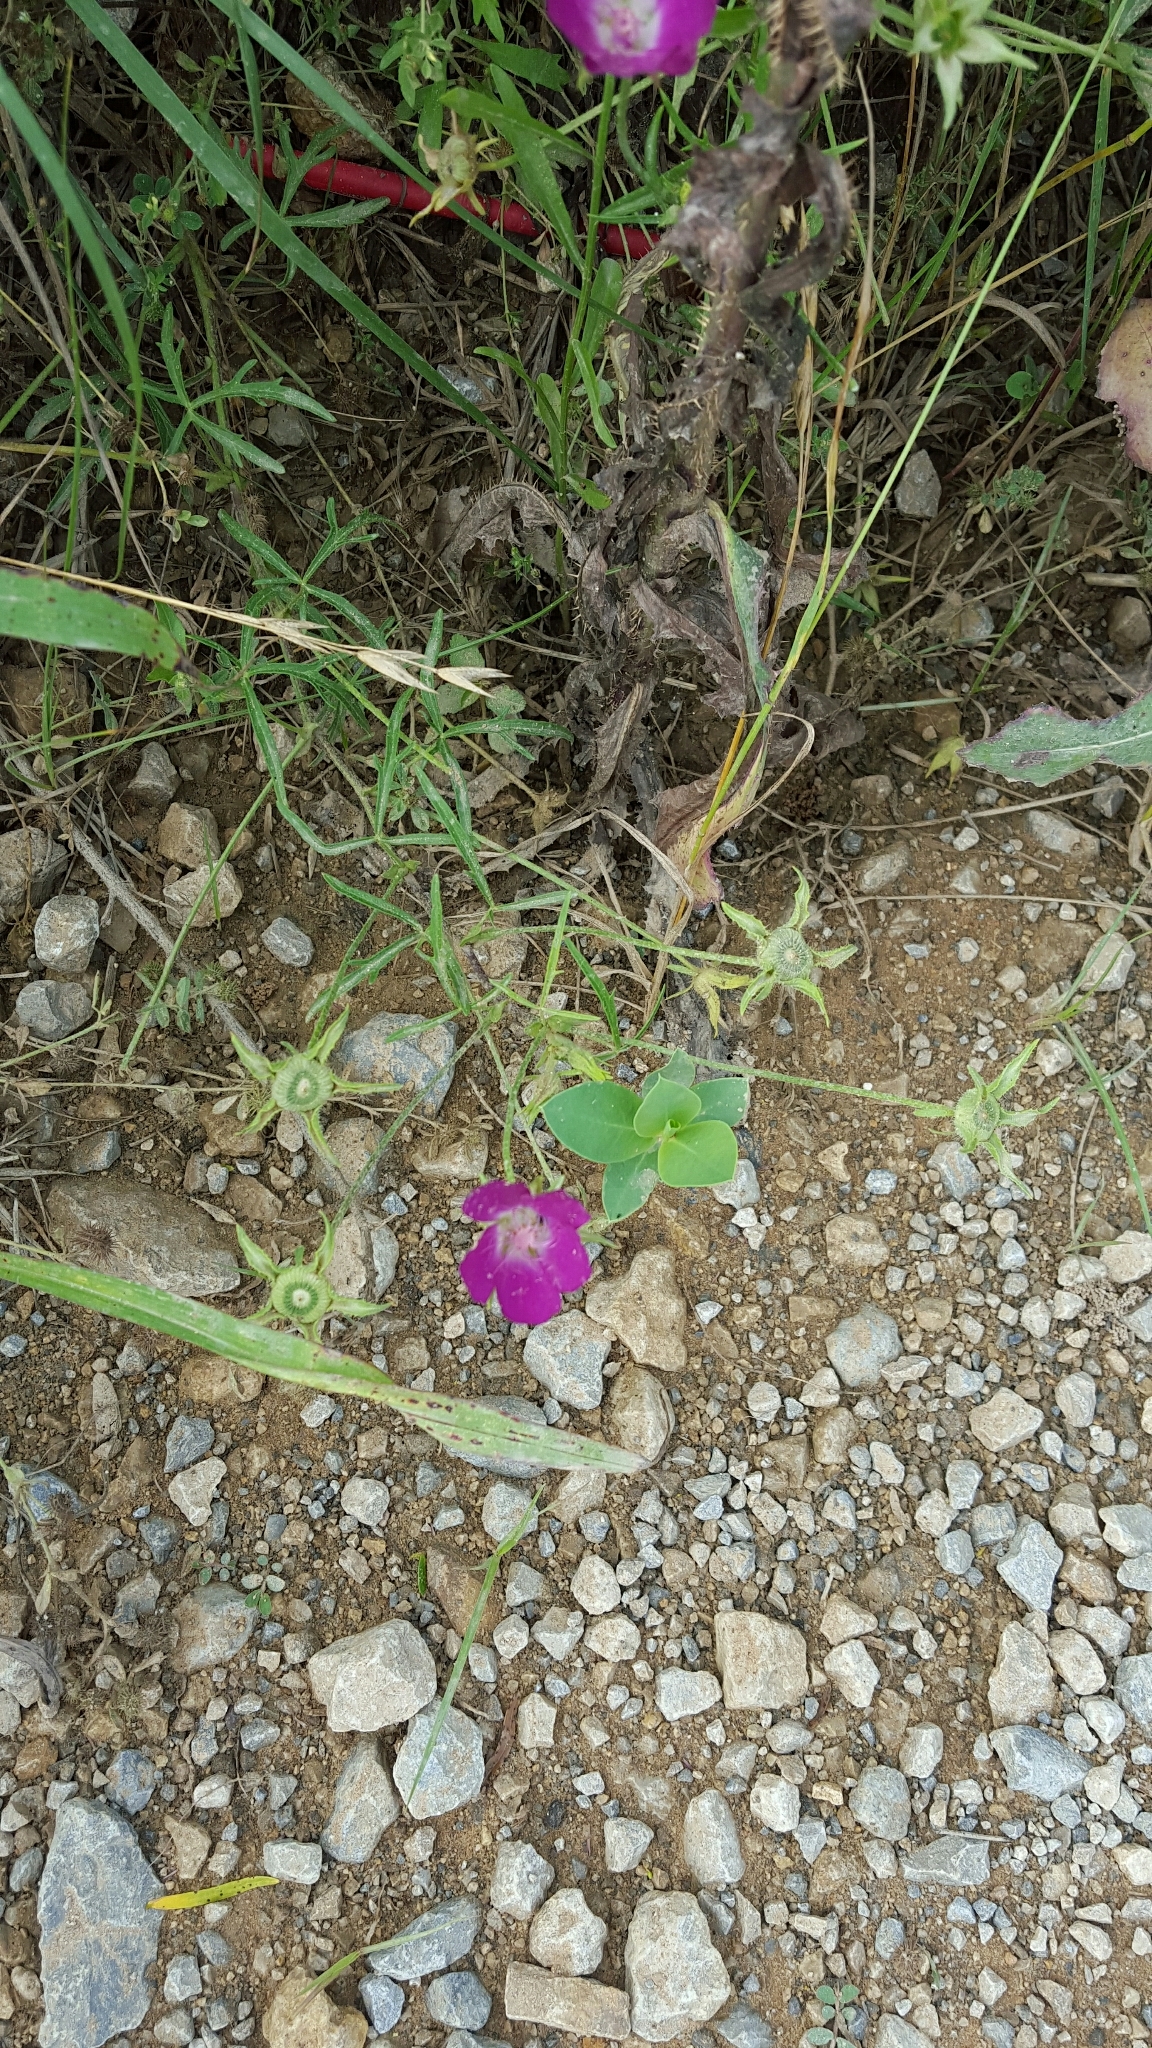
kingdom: Plantae
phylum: Tracheophyta
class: Magnoliopsida
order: Malvales
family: Malvaceae
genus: Callirhoe
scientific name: Callirhoe involucrata
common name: Purple poppy-mallow
